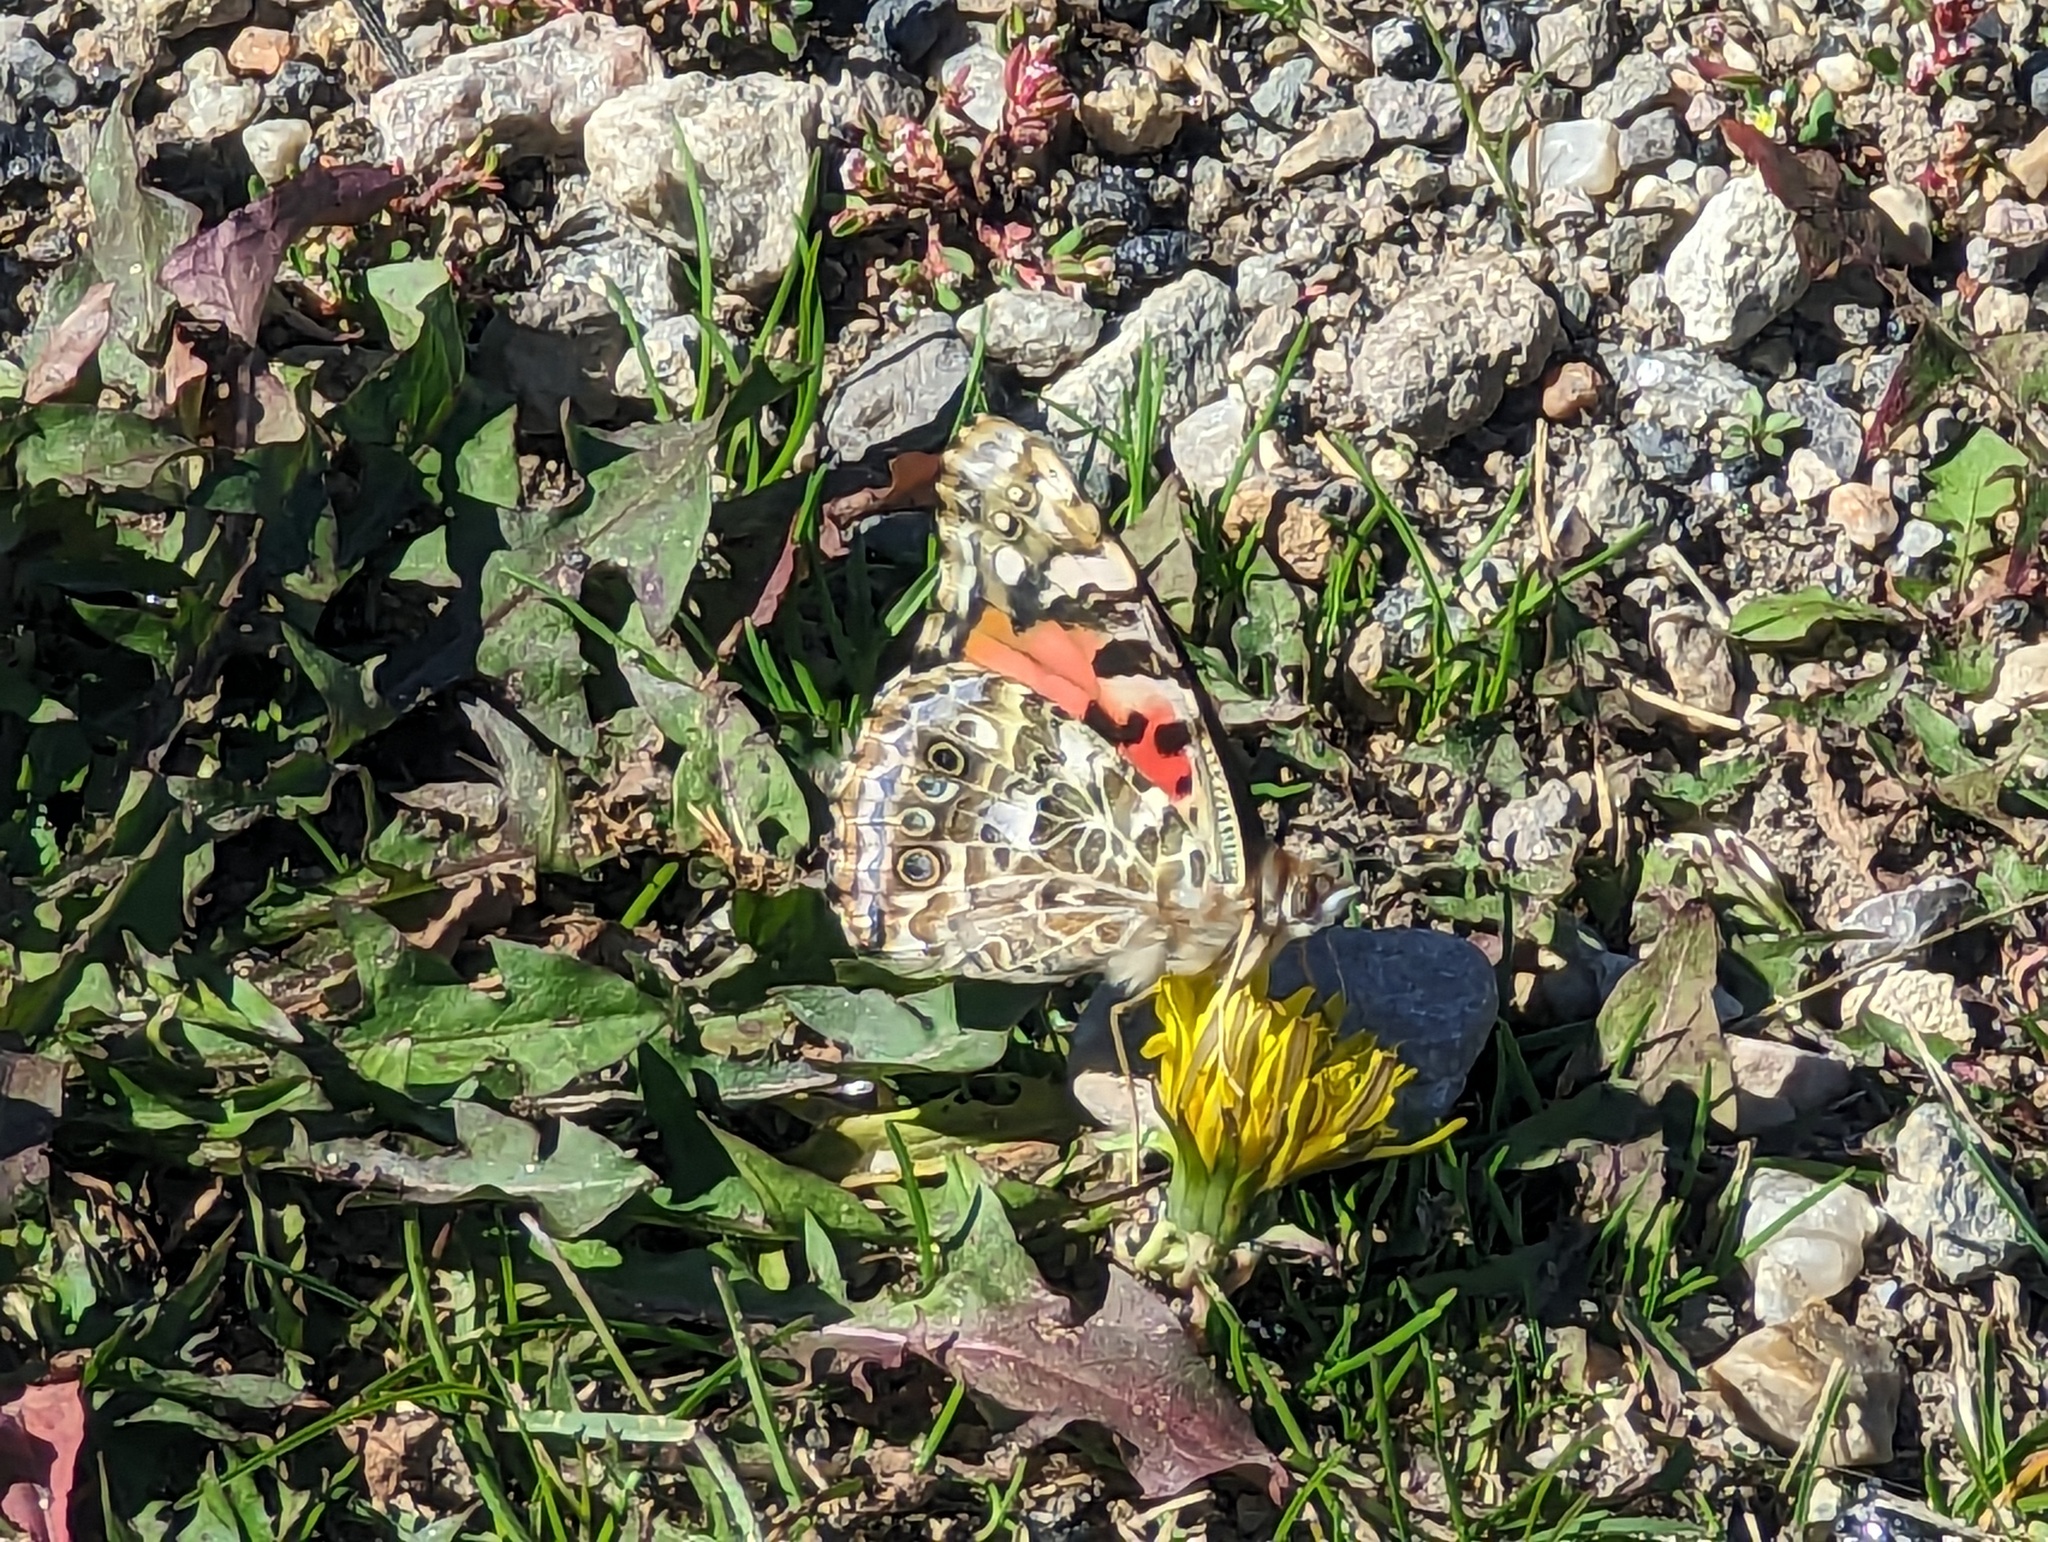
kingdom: Animalia
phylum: Arthropoda
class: Insecta
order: Lepidoptera
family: Nymphalidae
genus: Vanessa
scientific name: Vanessa cardui
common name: Painted lady
